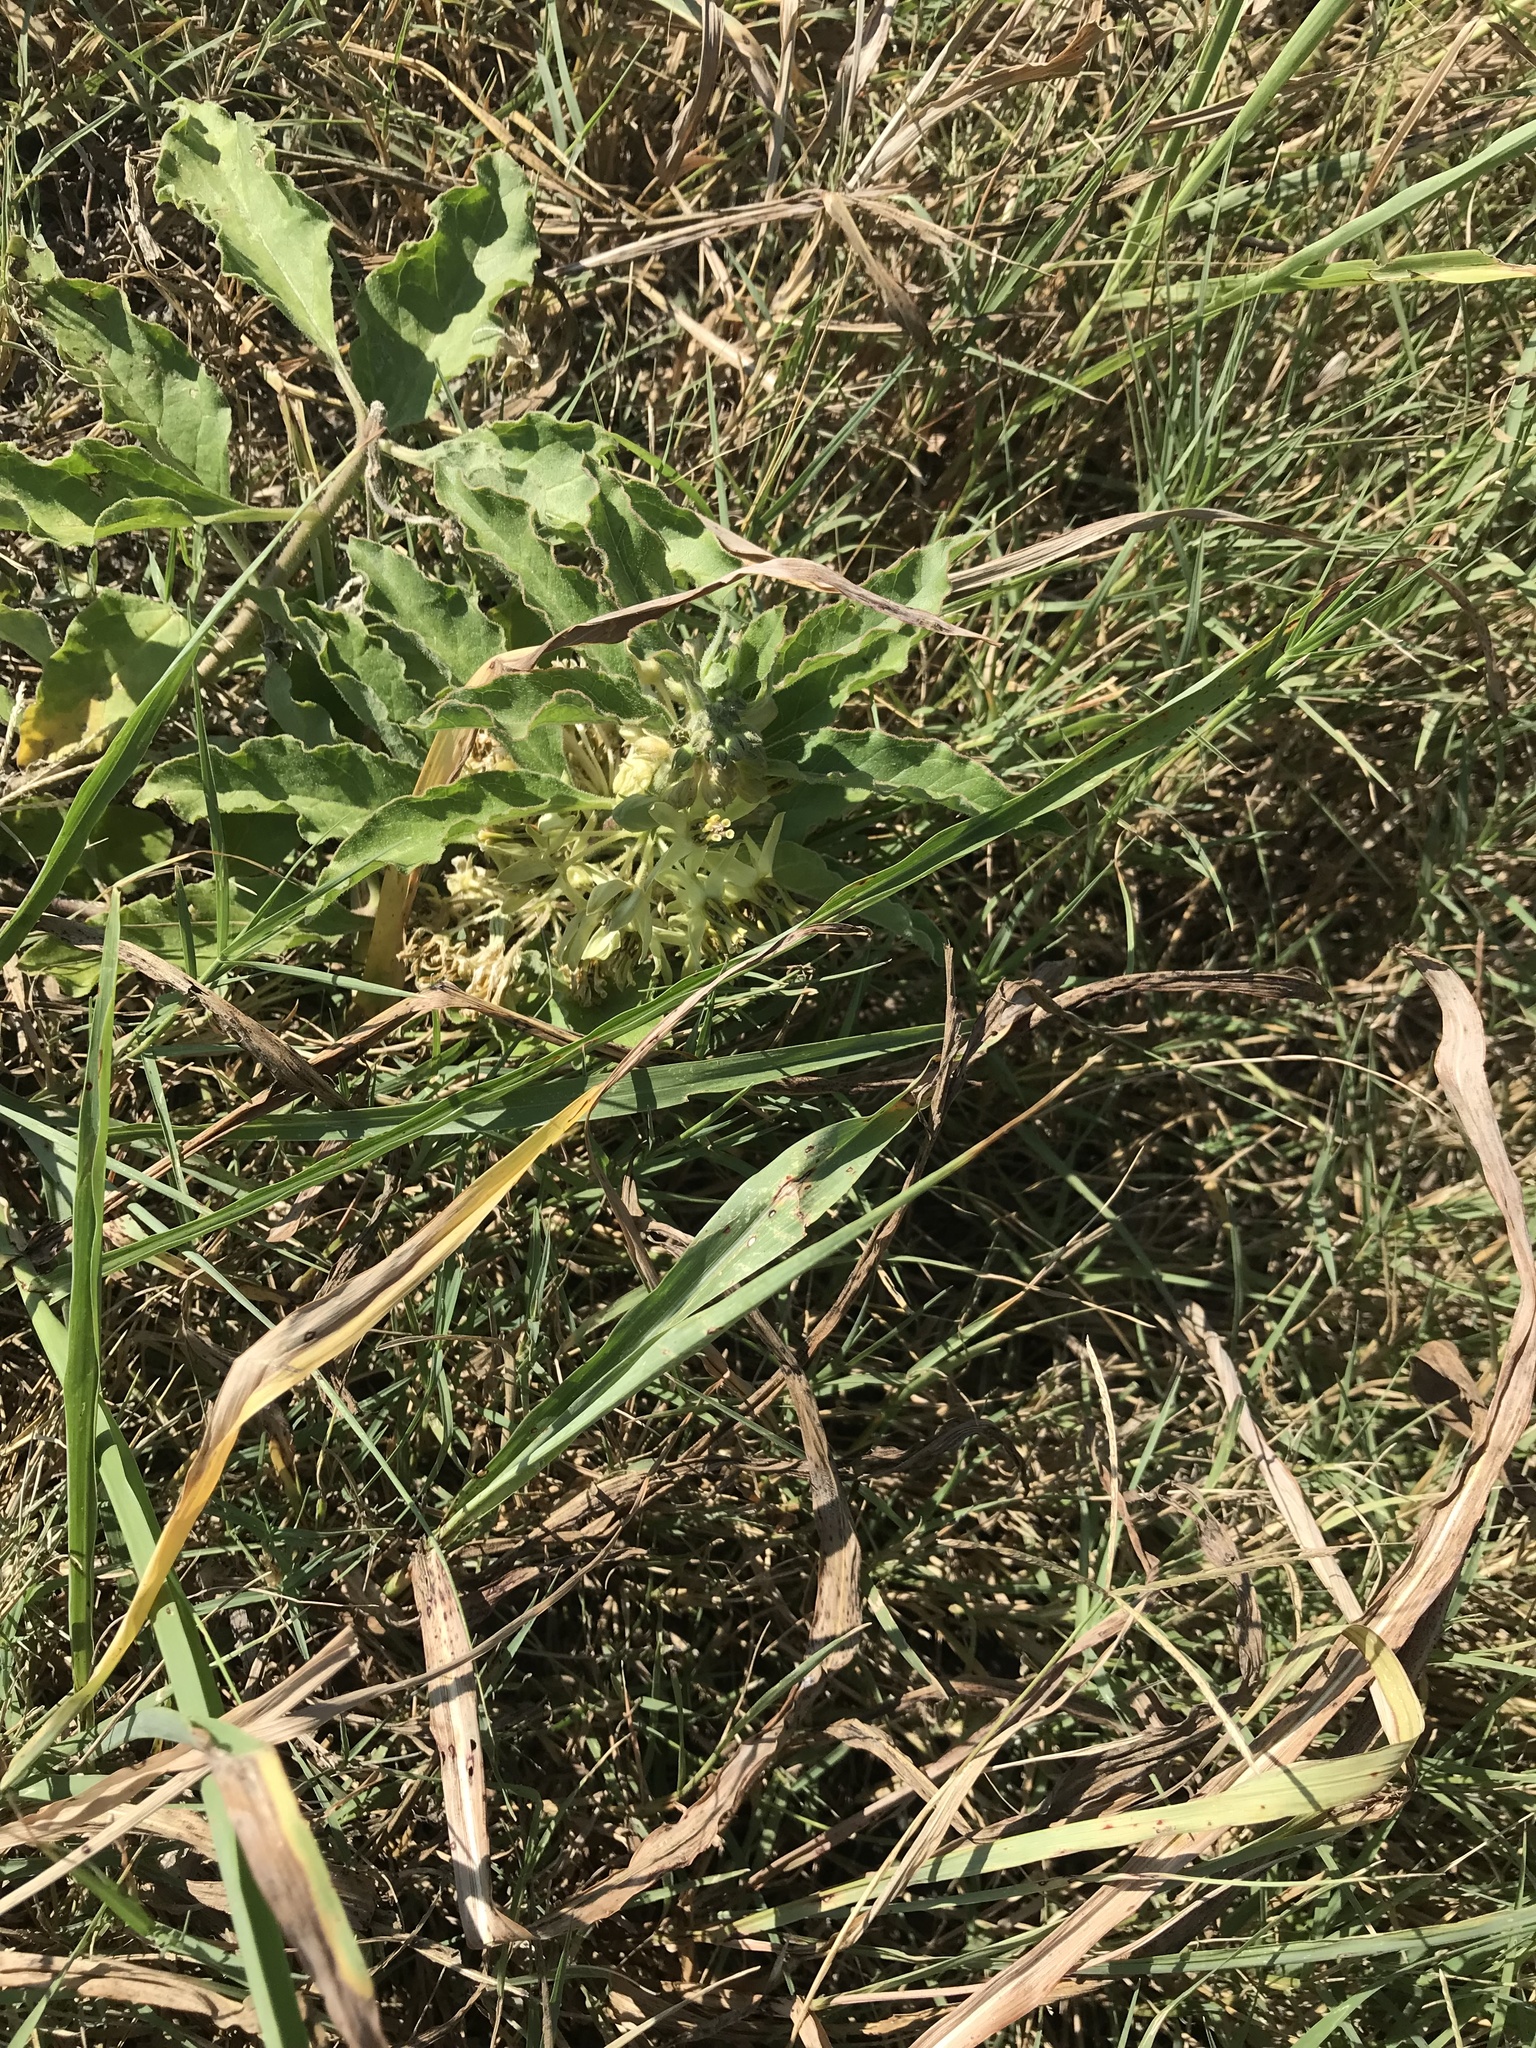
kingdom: Plantae
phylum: Tracheophyta
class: Magnoliopsida
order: Gentianales
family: Apocynaceae
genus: Asclepias
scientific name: Asclepias oenotheroides
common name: Zizotes milkweed
